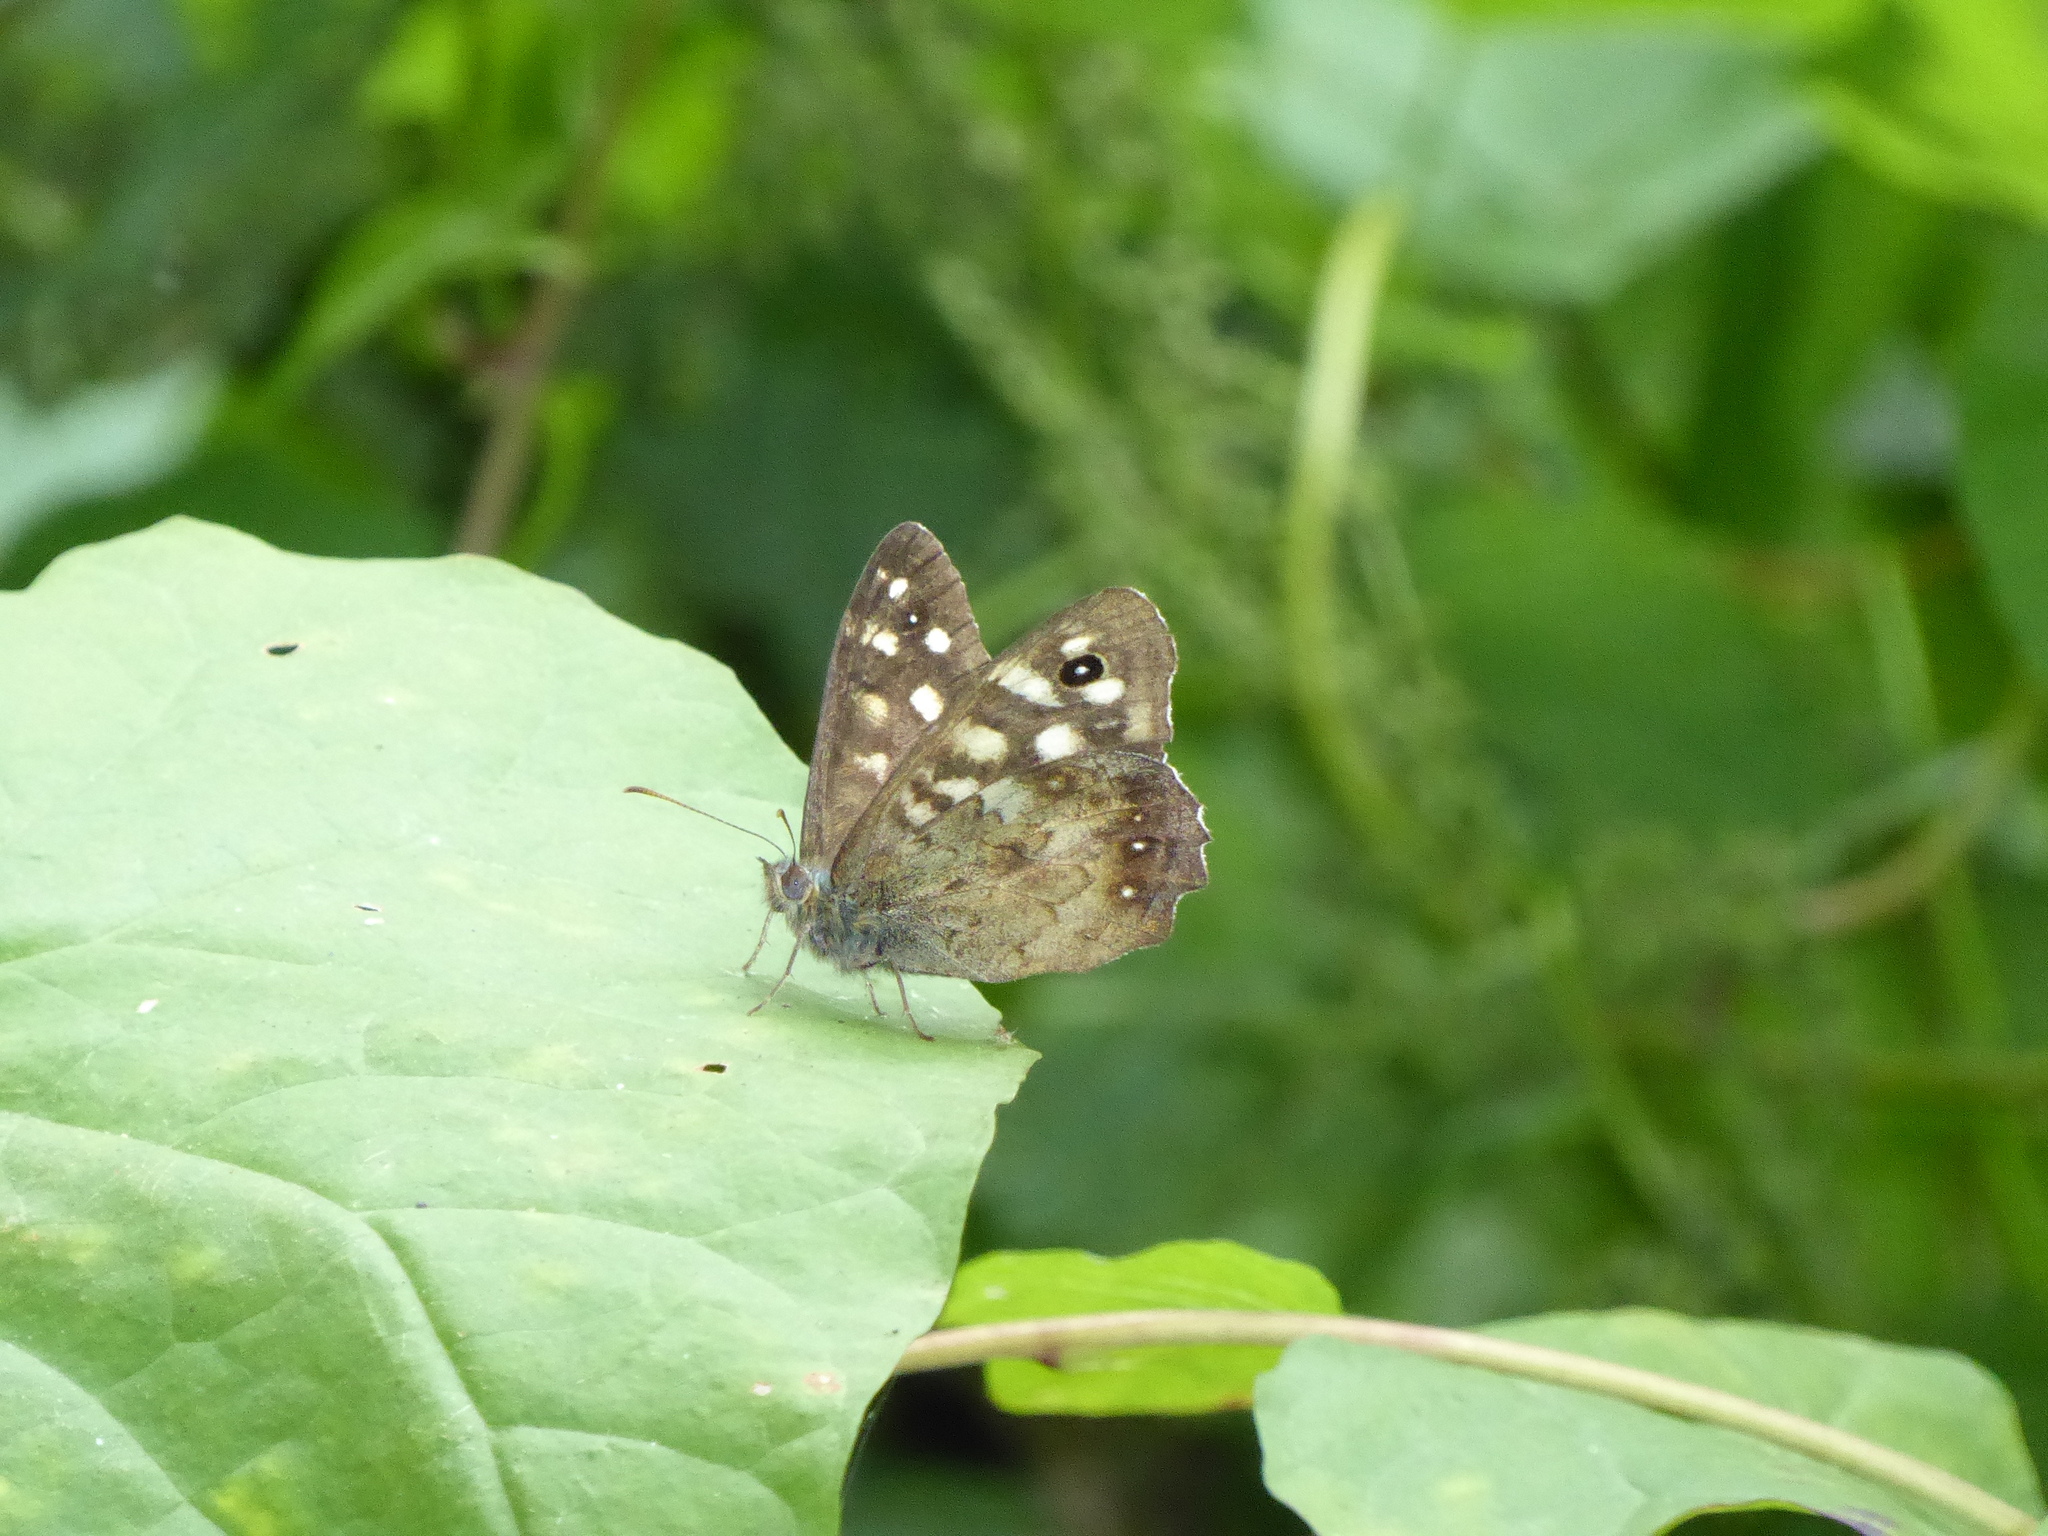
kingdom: Animalia
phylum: Arthropoda
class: Insecta
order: Lepidoptera
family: Nymphalidae
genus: Pararge
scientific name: Pararge aegeria
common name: Speckled wood
